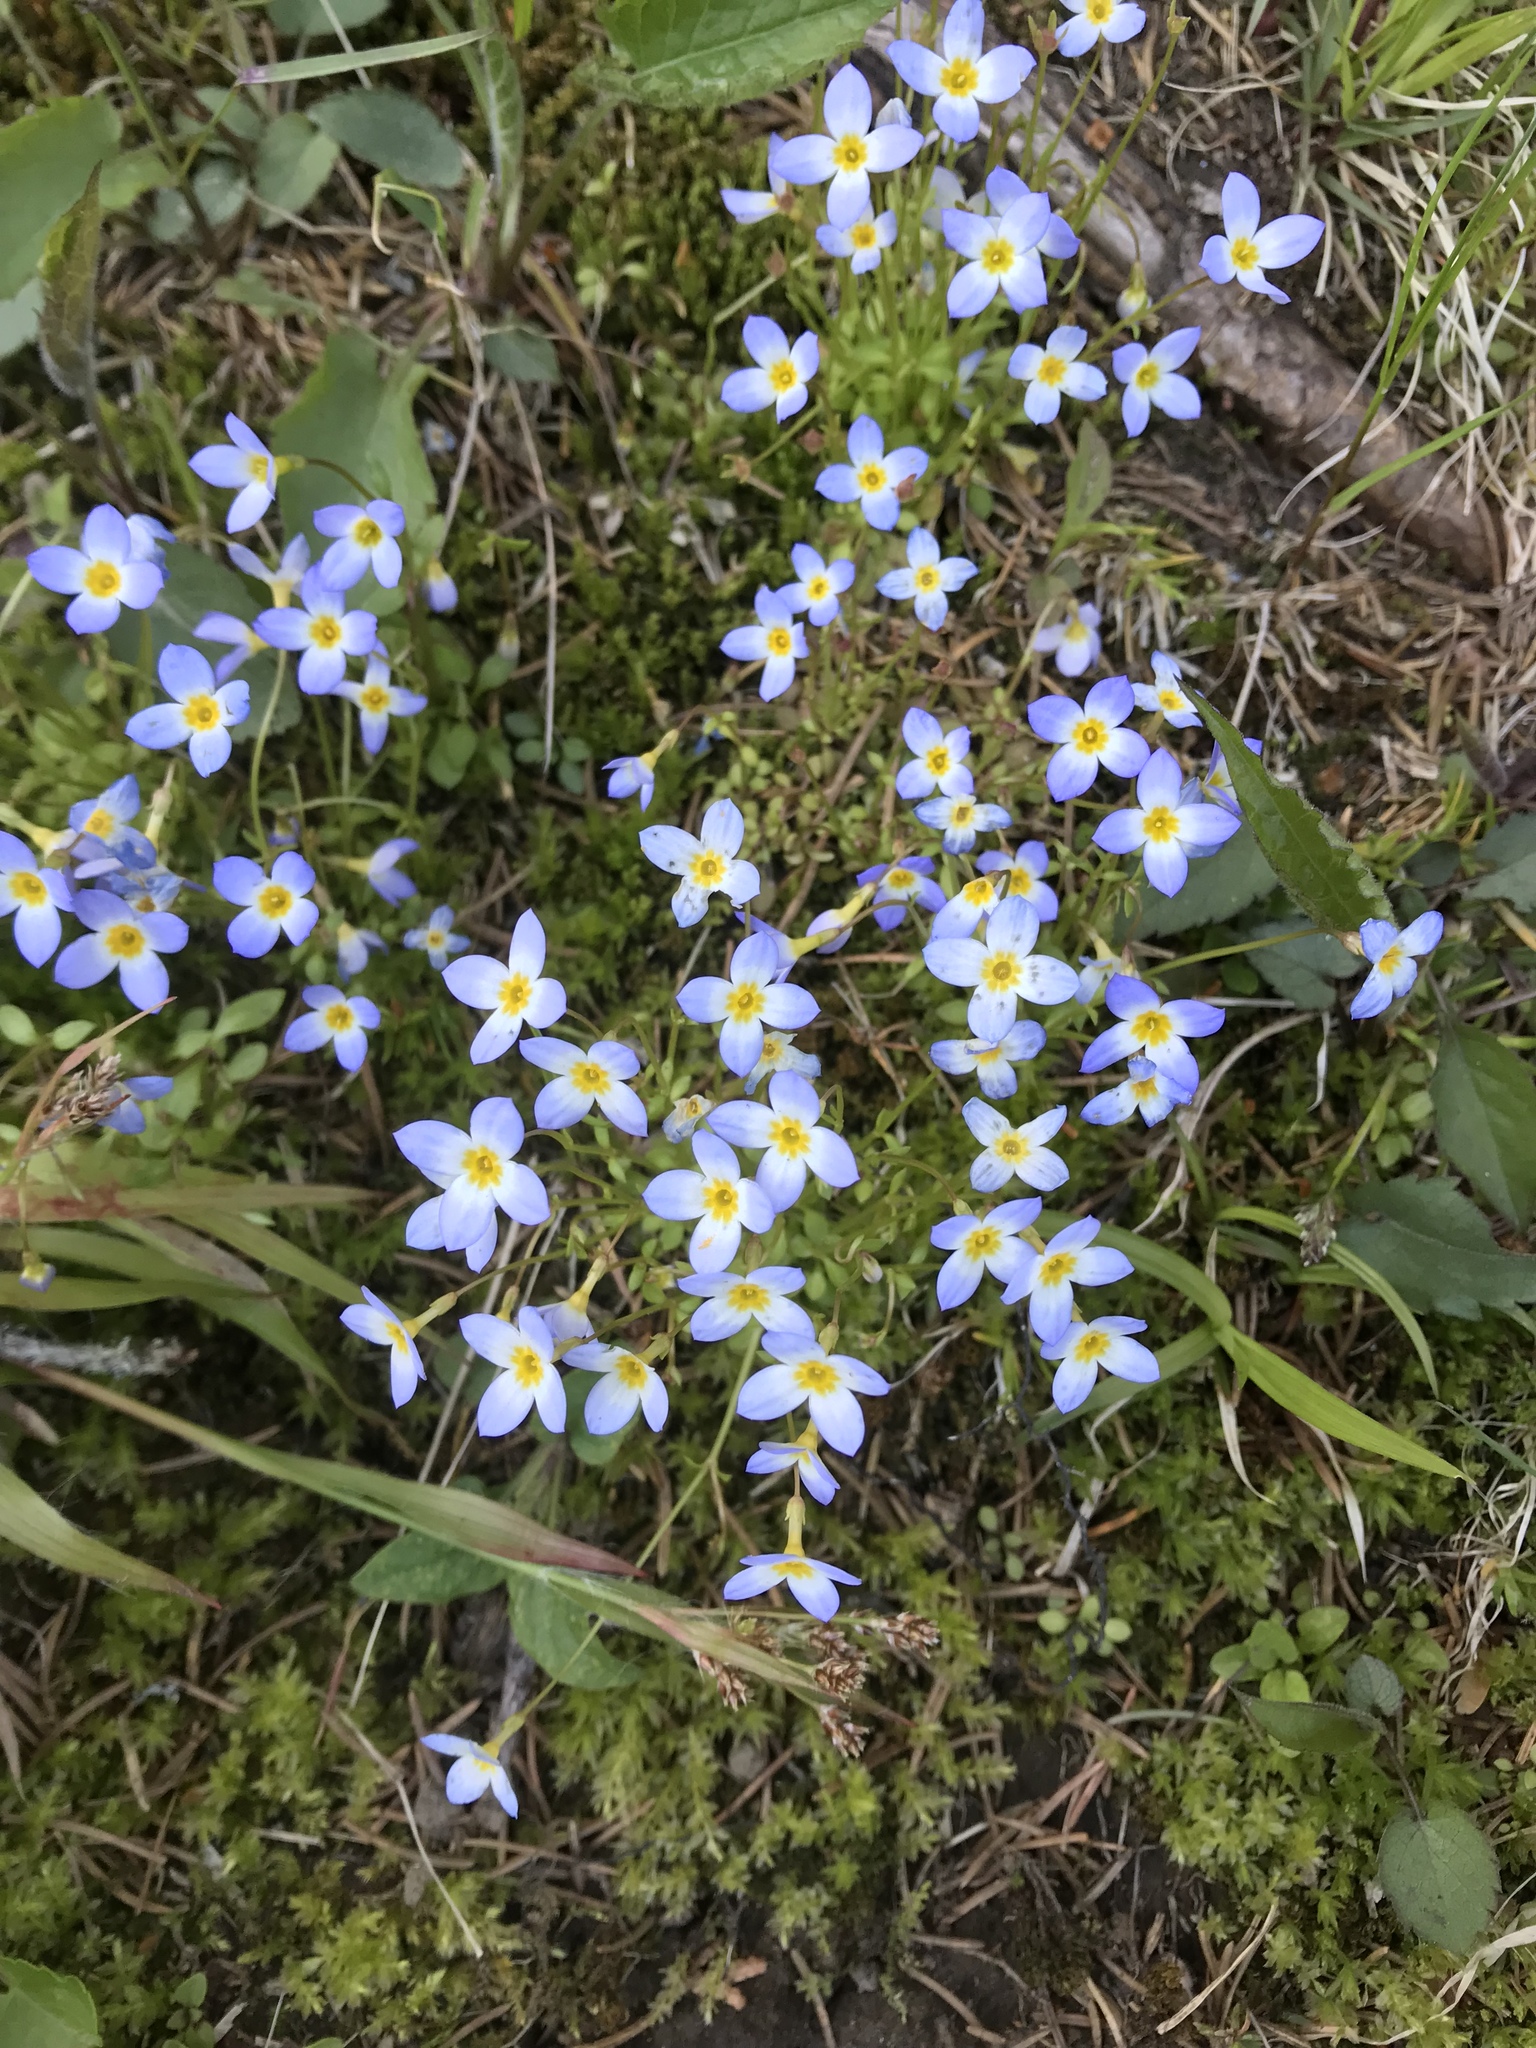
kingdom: Plantae
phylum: Tracheophyta
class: Magnoliopsida
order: Gentianales
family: Rubiaceae
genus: Houstonia
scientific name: Houstonia caerulea
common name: Bluets
